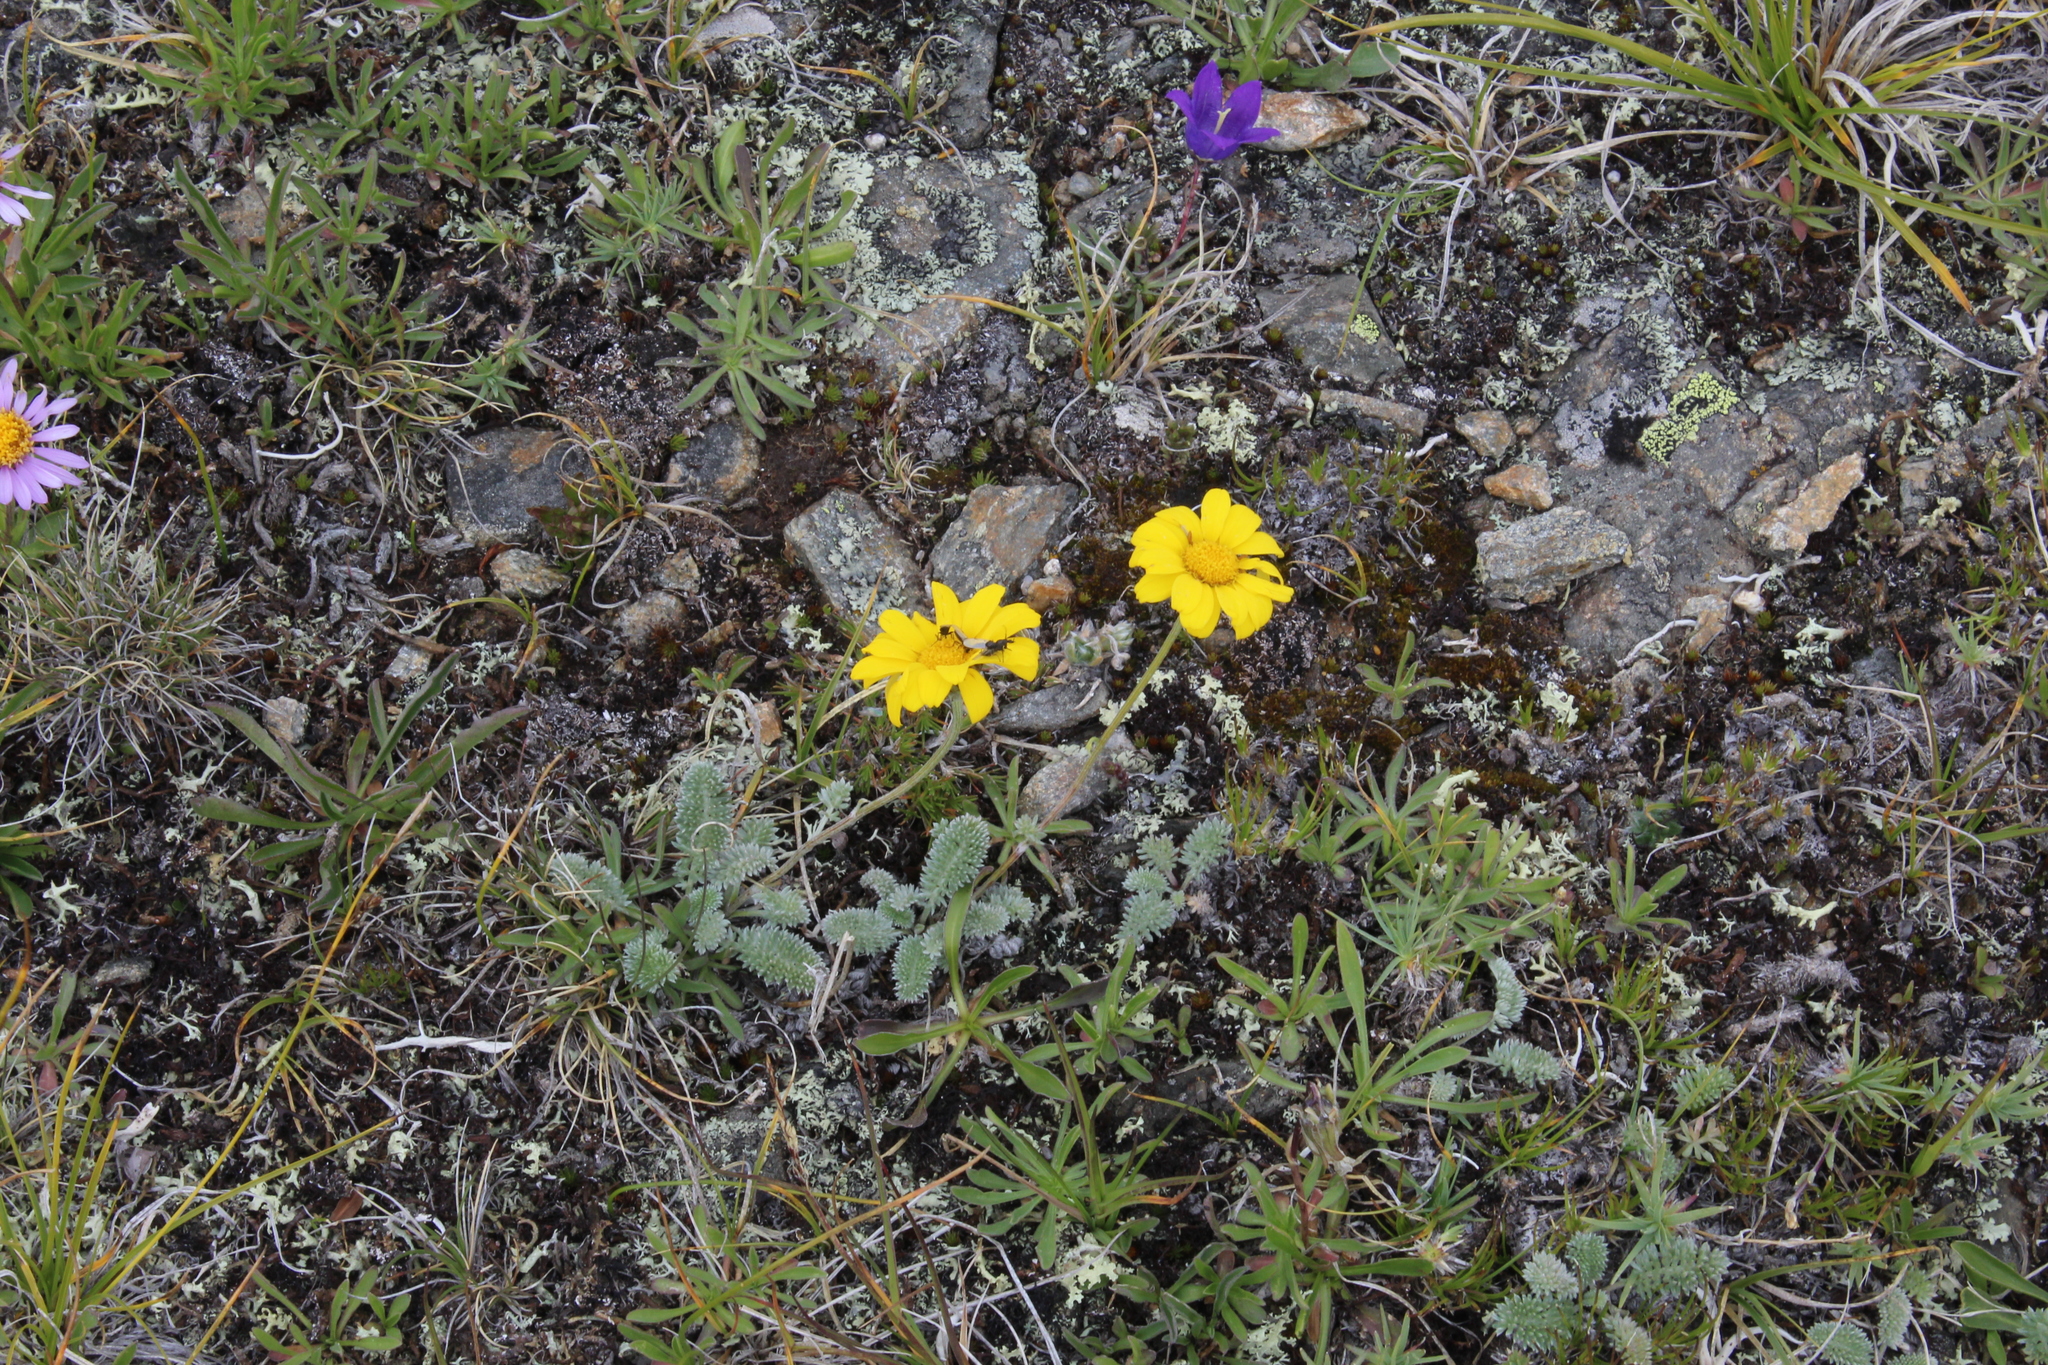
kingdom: Plantae
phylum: Tracheophyta
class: Magnoliopsida
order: Asterales
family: Asteraceae
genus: Archanthemis
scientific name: Archanthemis marschalliana
